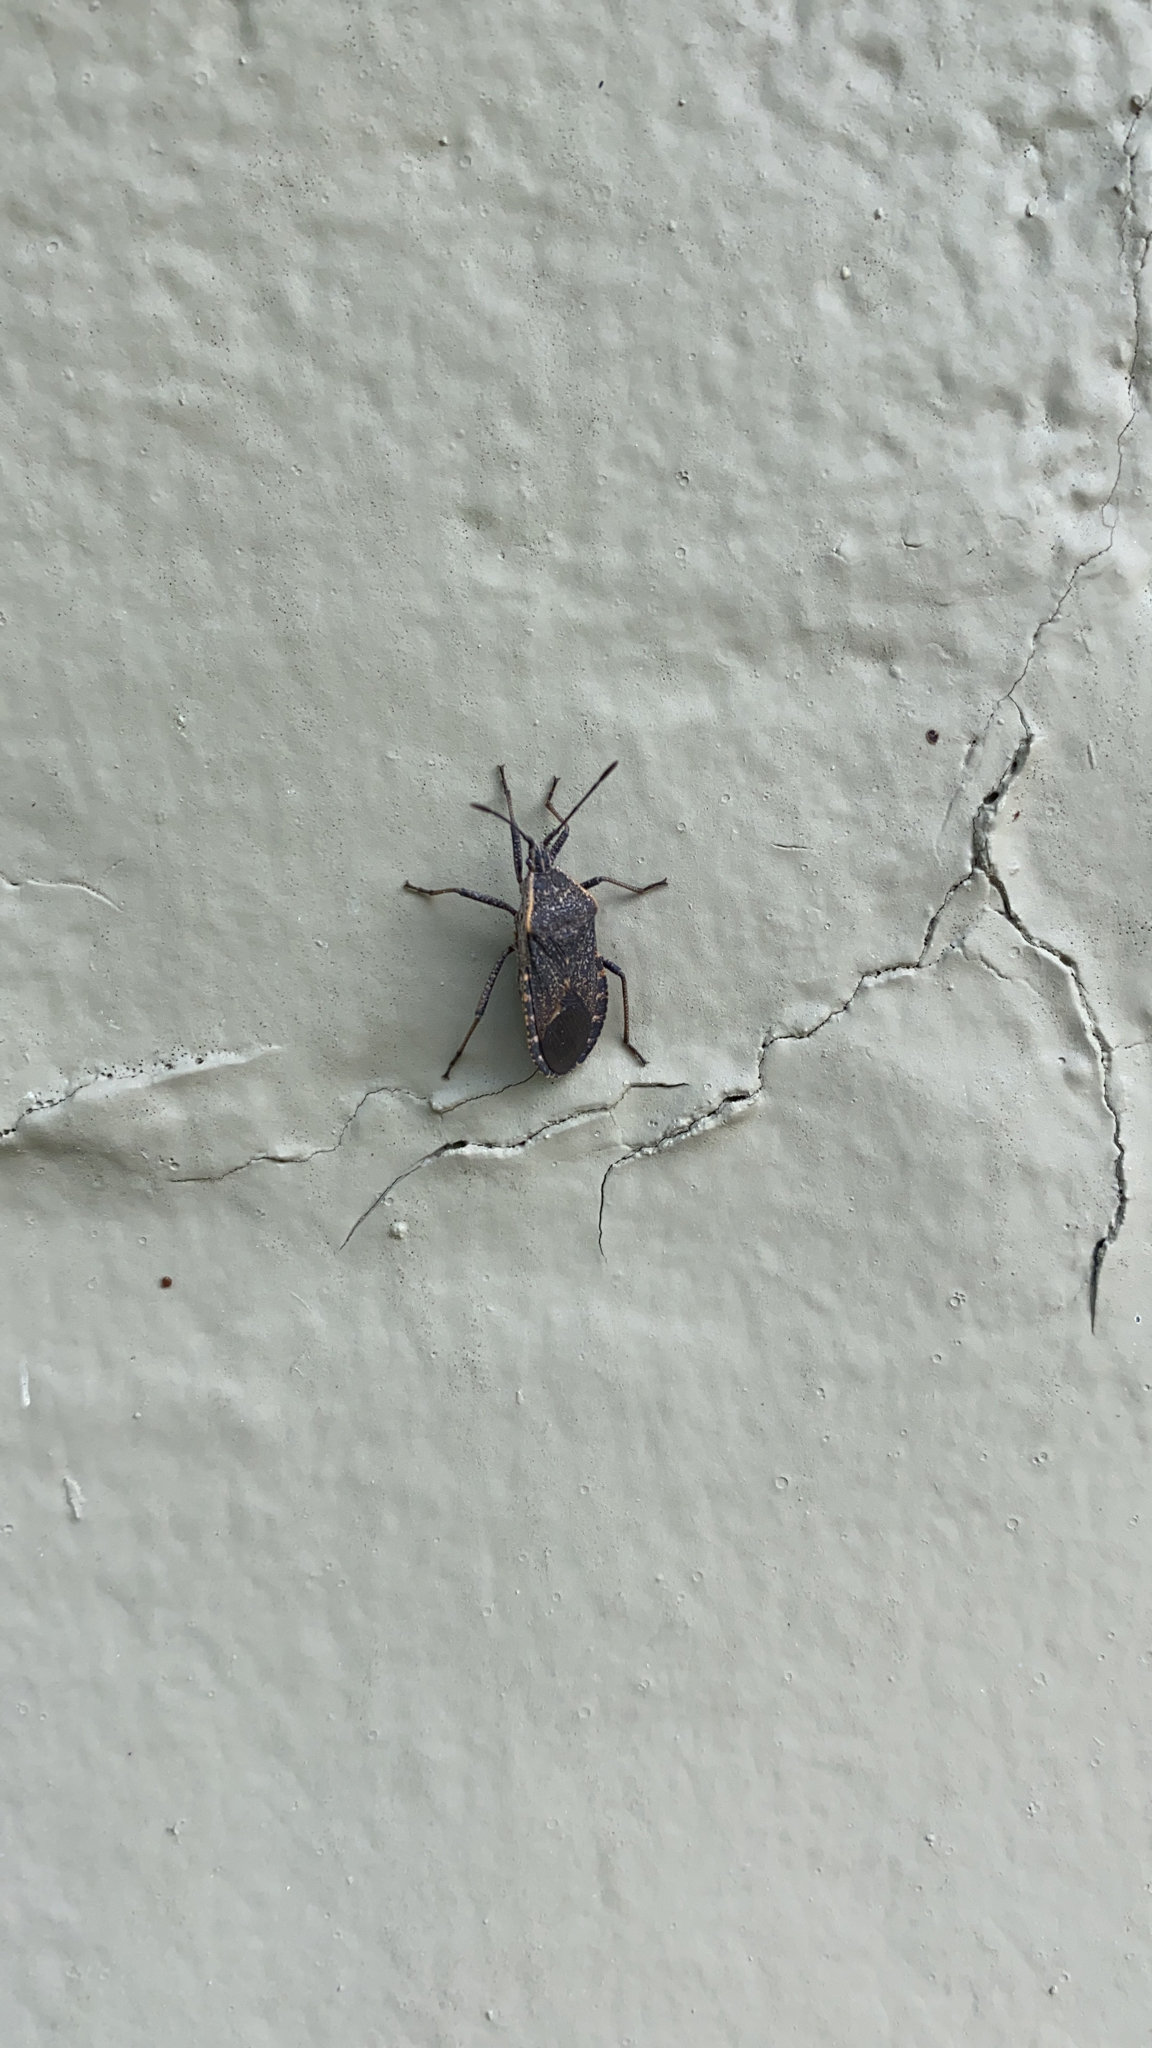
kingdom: Animalia
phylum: Arthropoda
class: Insecta
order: Hemiptera
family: Coreidae
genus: Anasa
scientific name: Anasa tristis
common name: Squash bug
